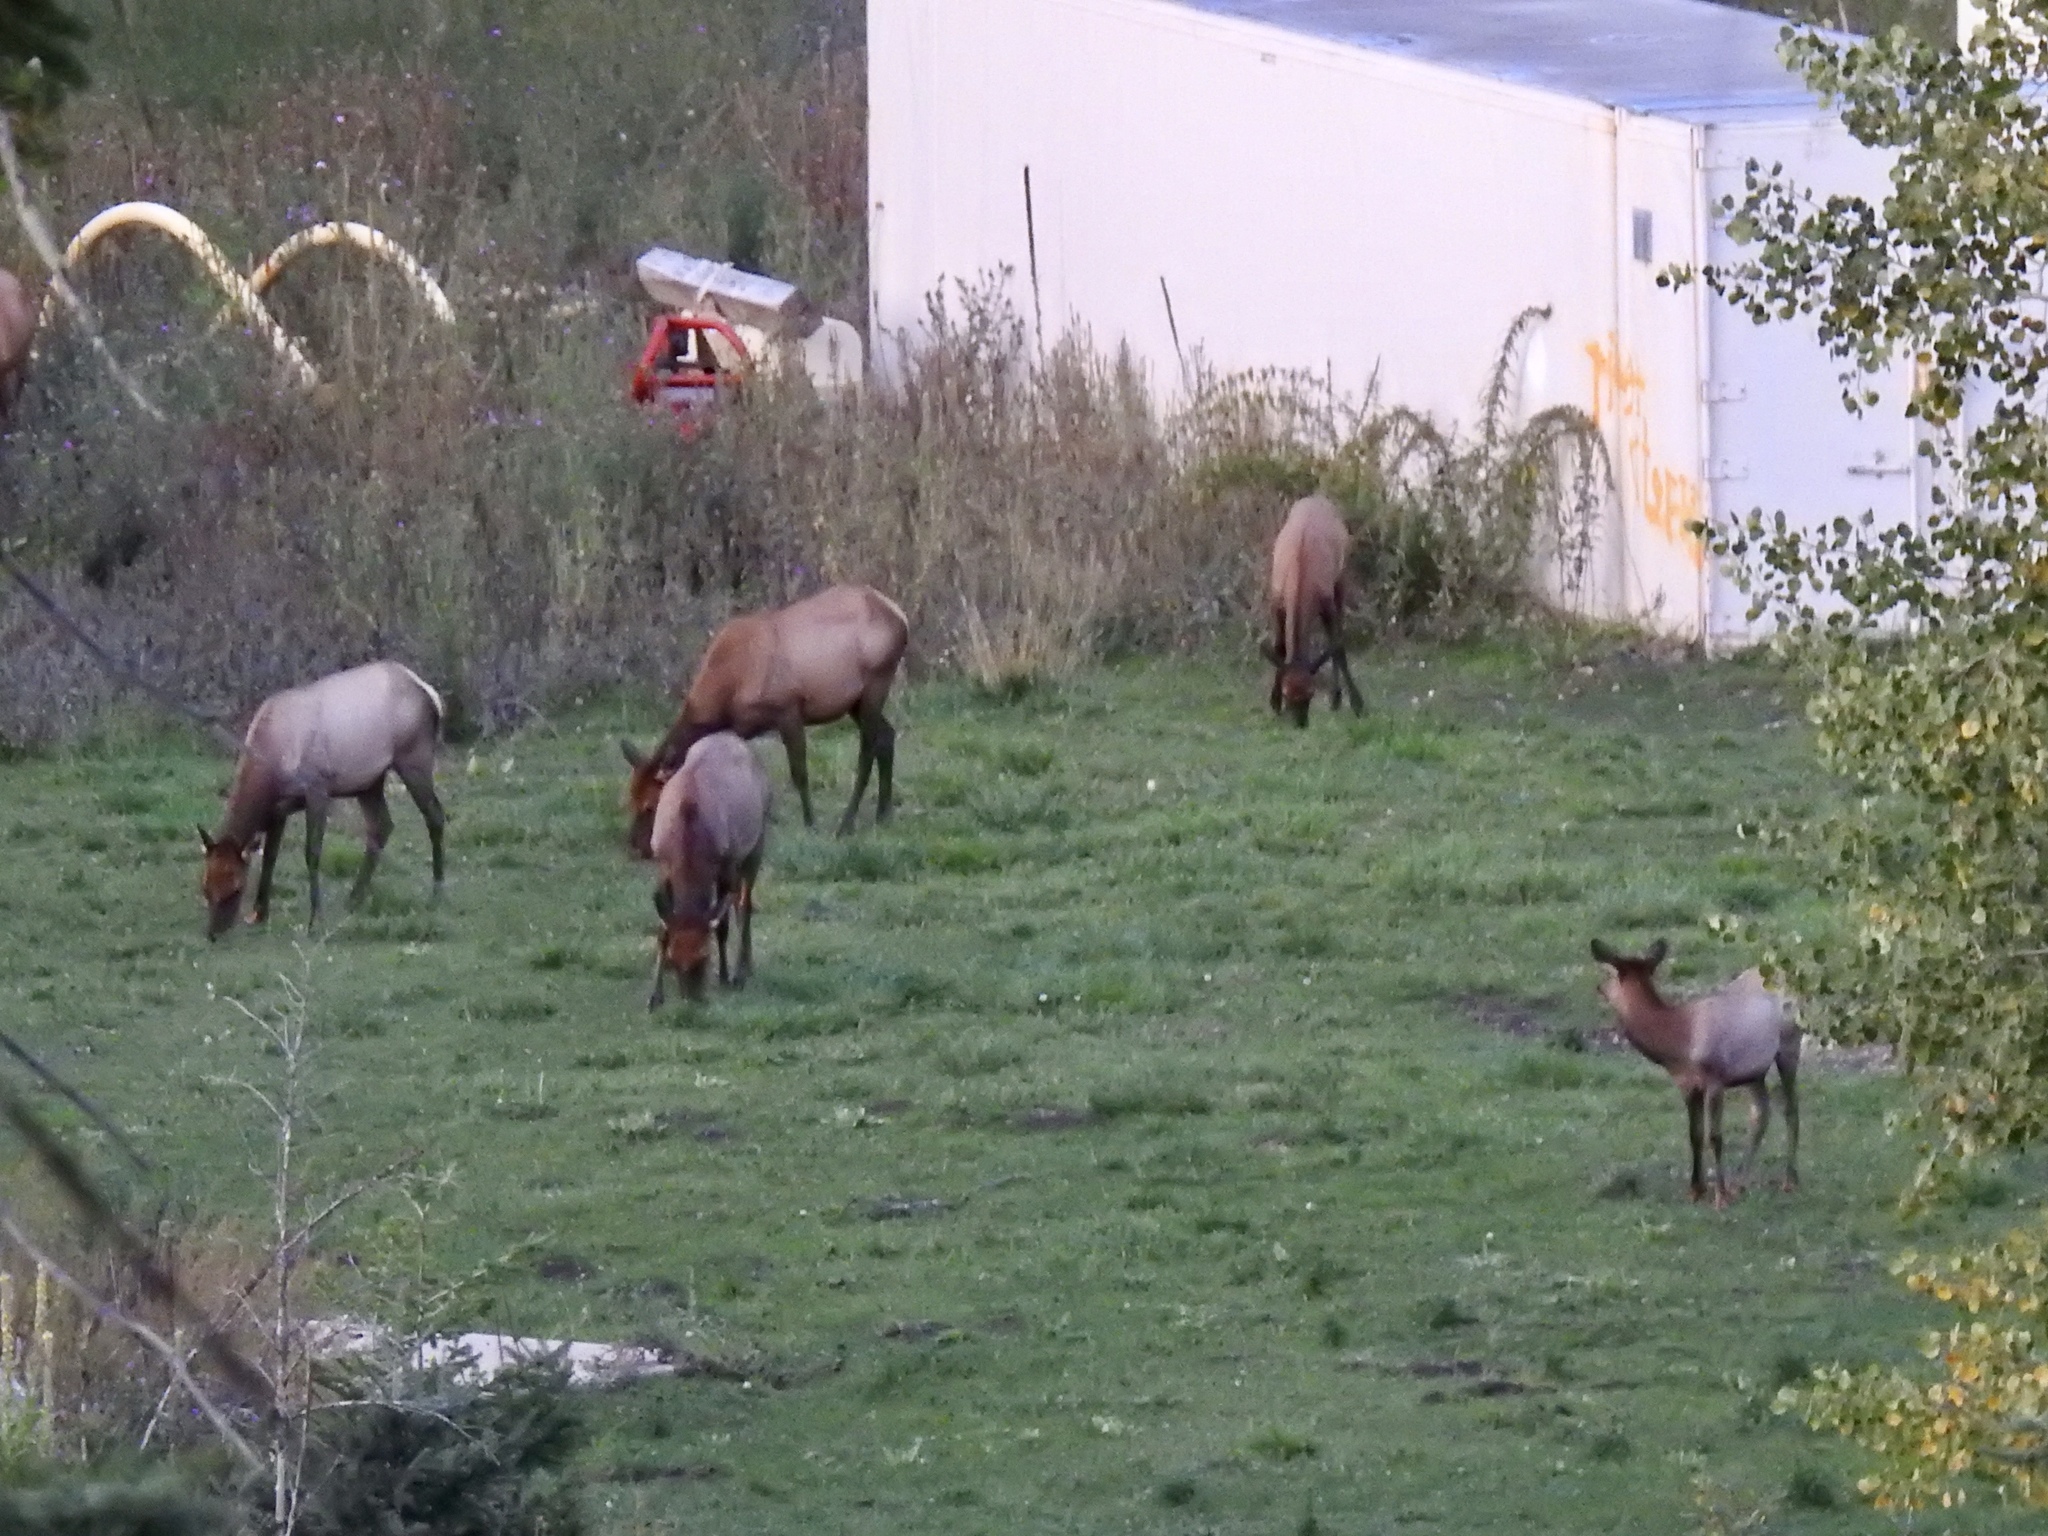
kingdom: Animalia
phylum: Chordata
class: Mammalia
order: Artiodactyla
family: Cervidae
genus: Cervus
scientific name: Cervus elaphus
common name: Red deer
